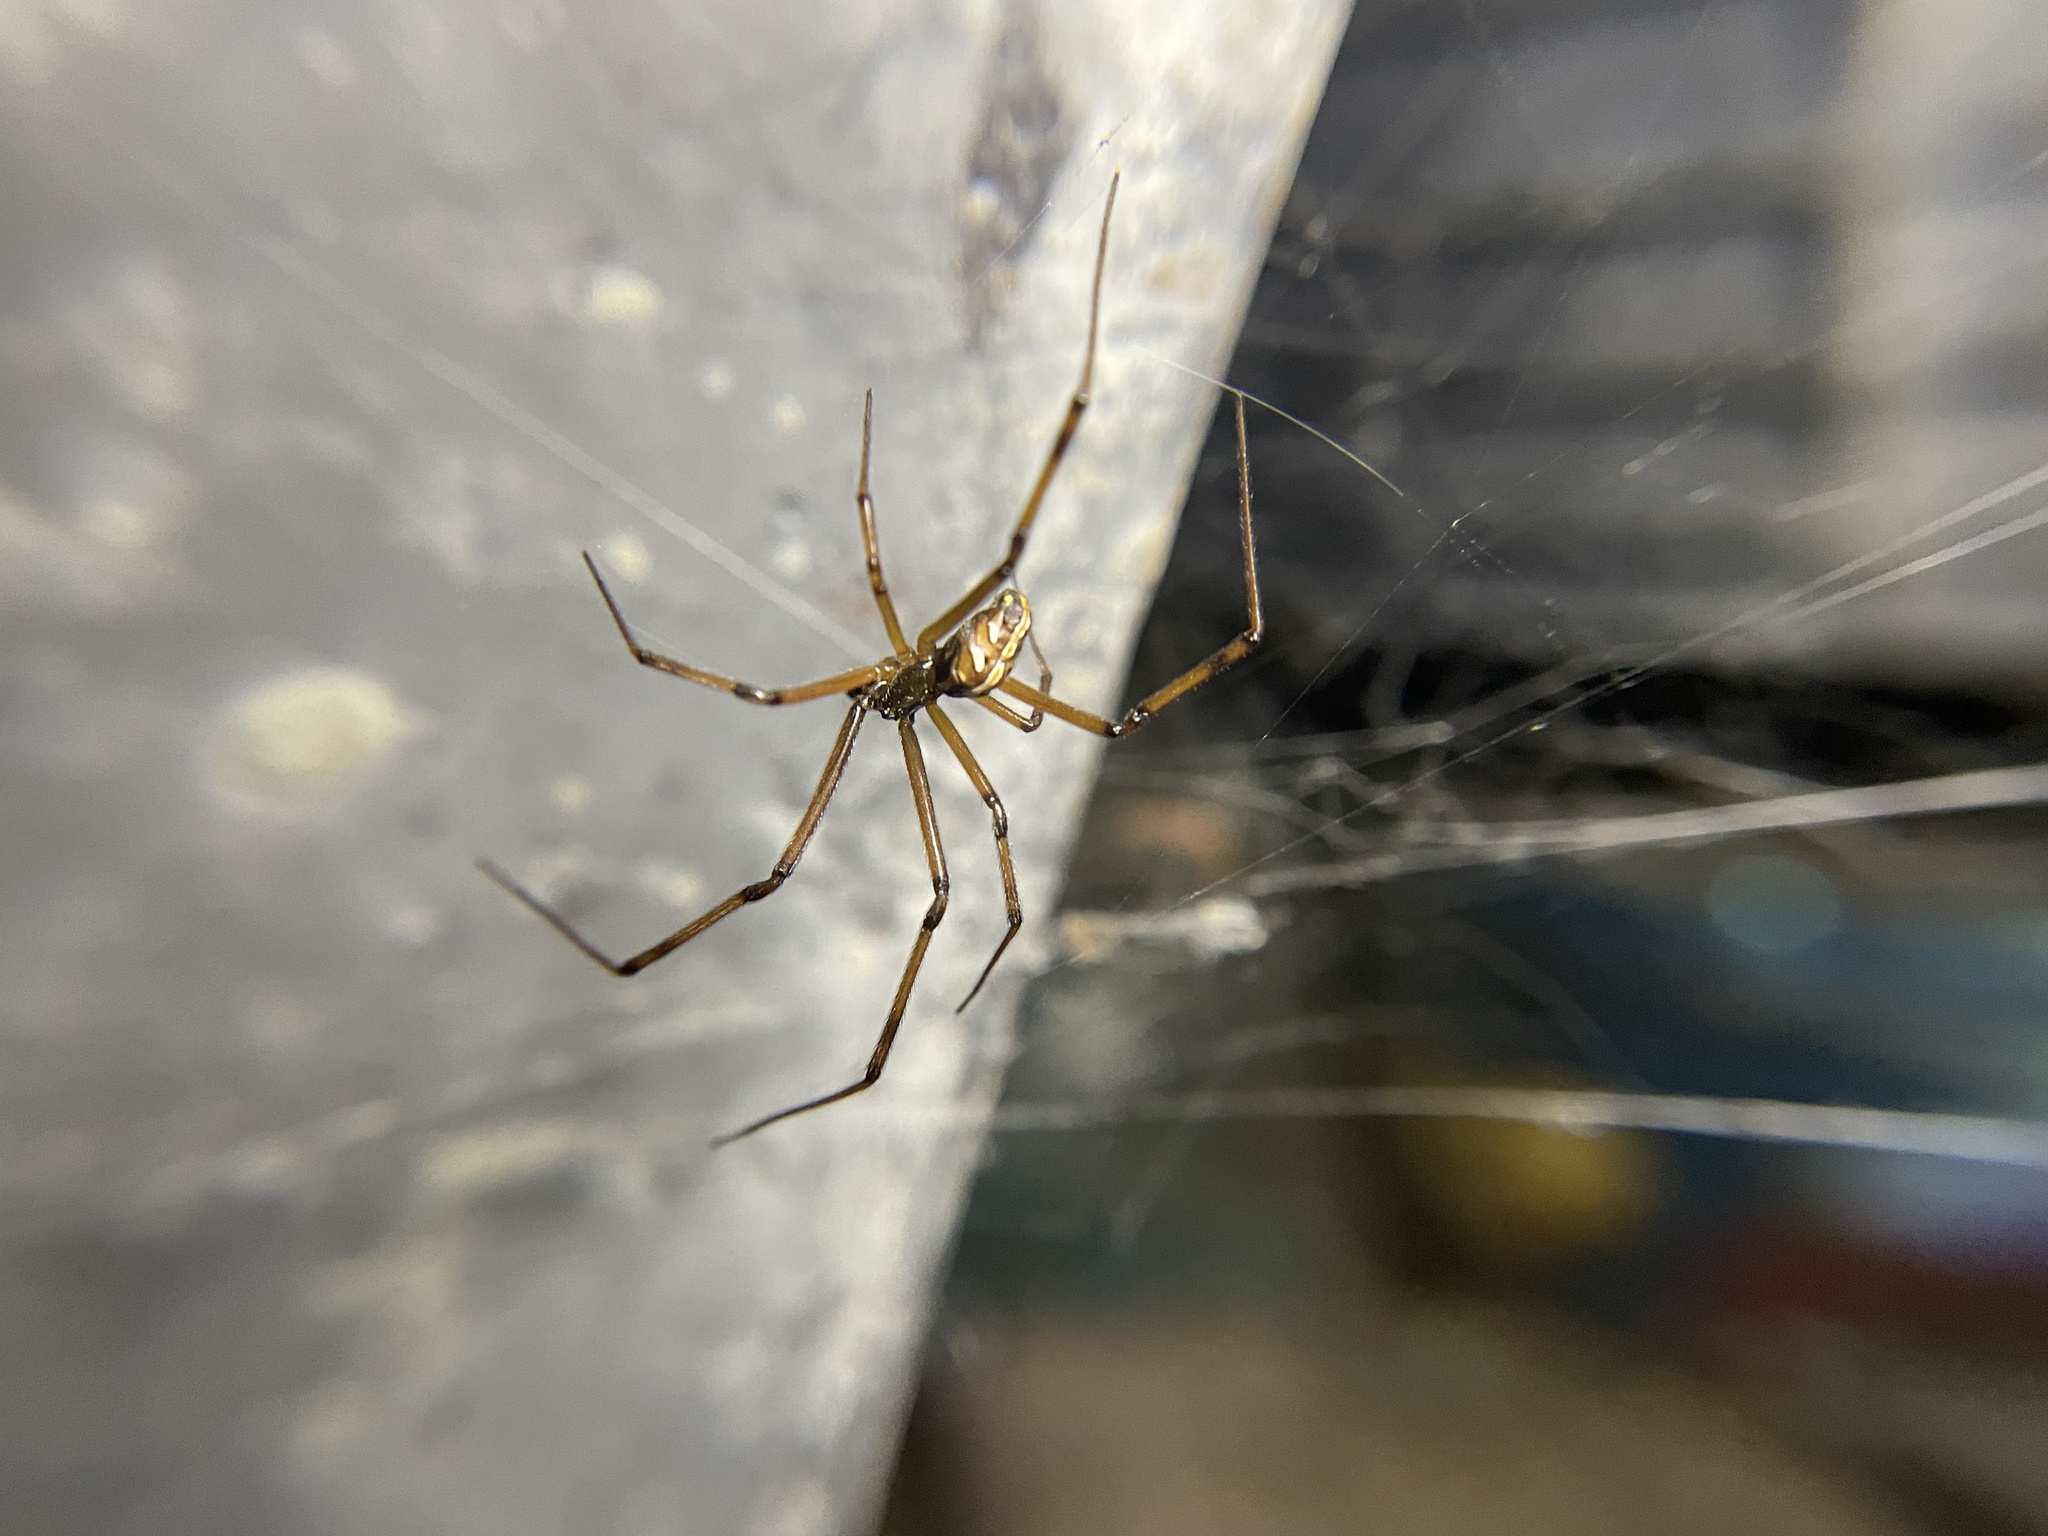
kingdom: Animalia
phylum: Arthropoda
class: Arachnida
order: Araneae
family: Theridiidae
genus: Latrodectus
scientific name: Latrodectus hesperus
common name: Western black widow
